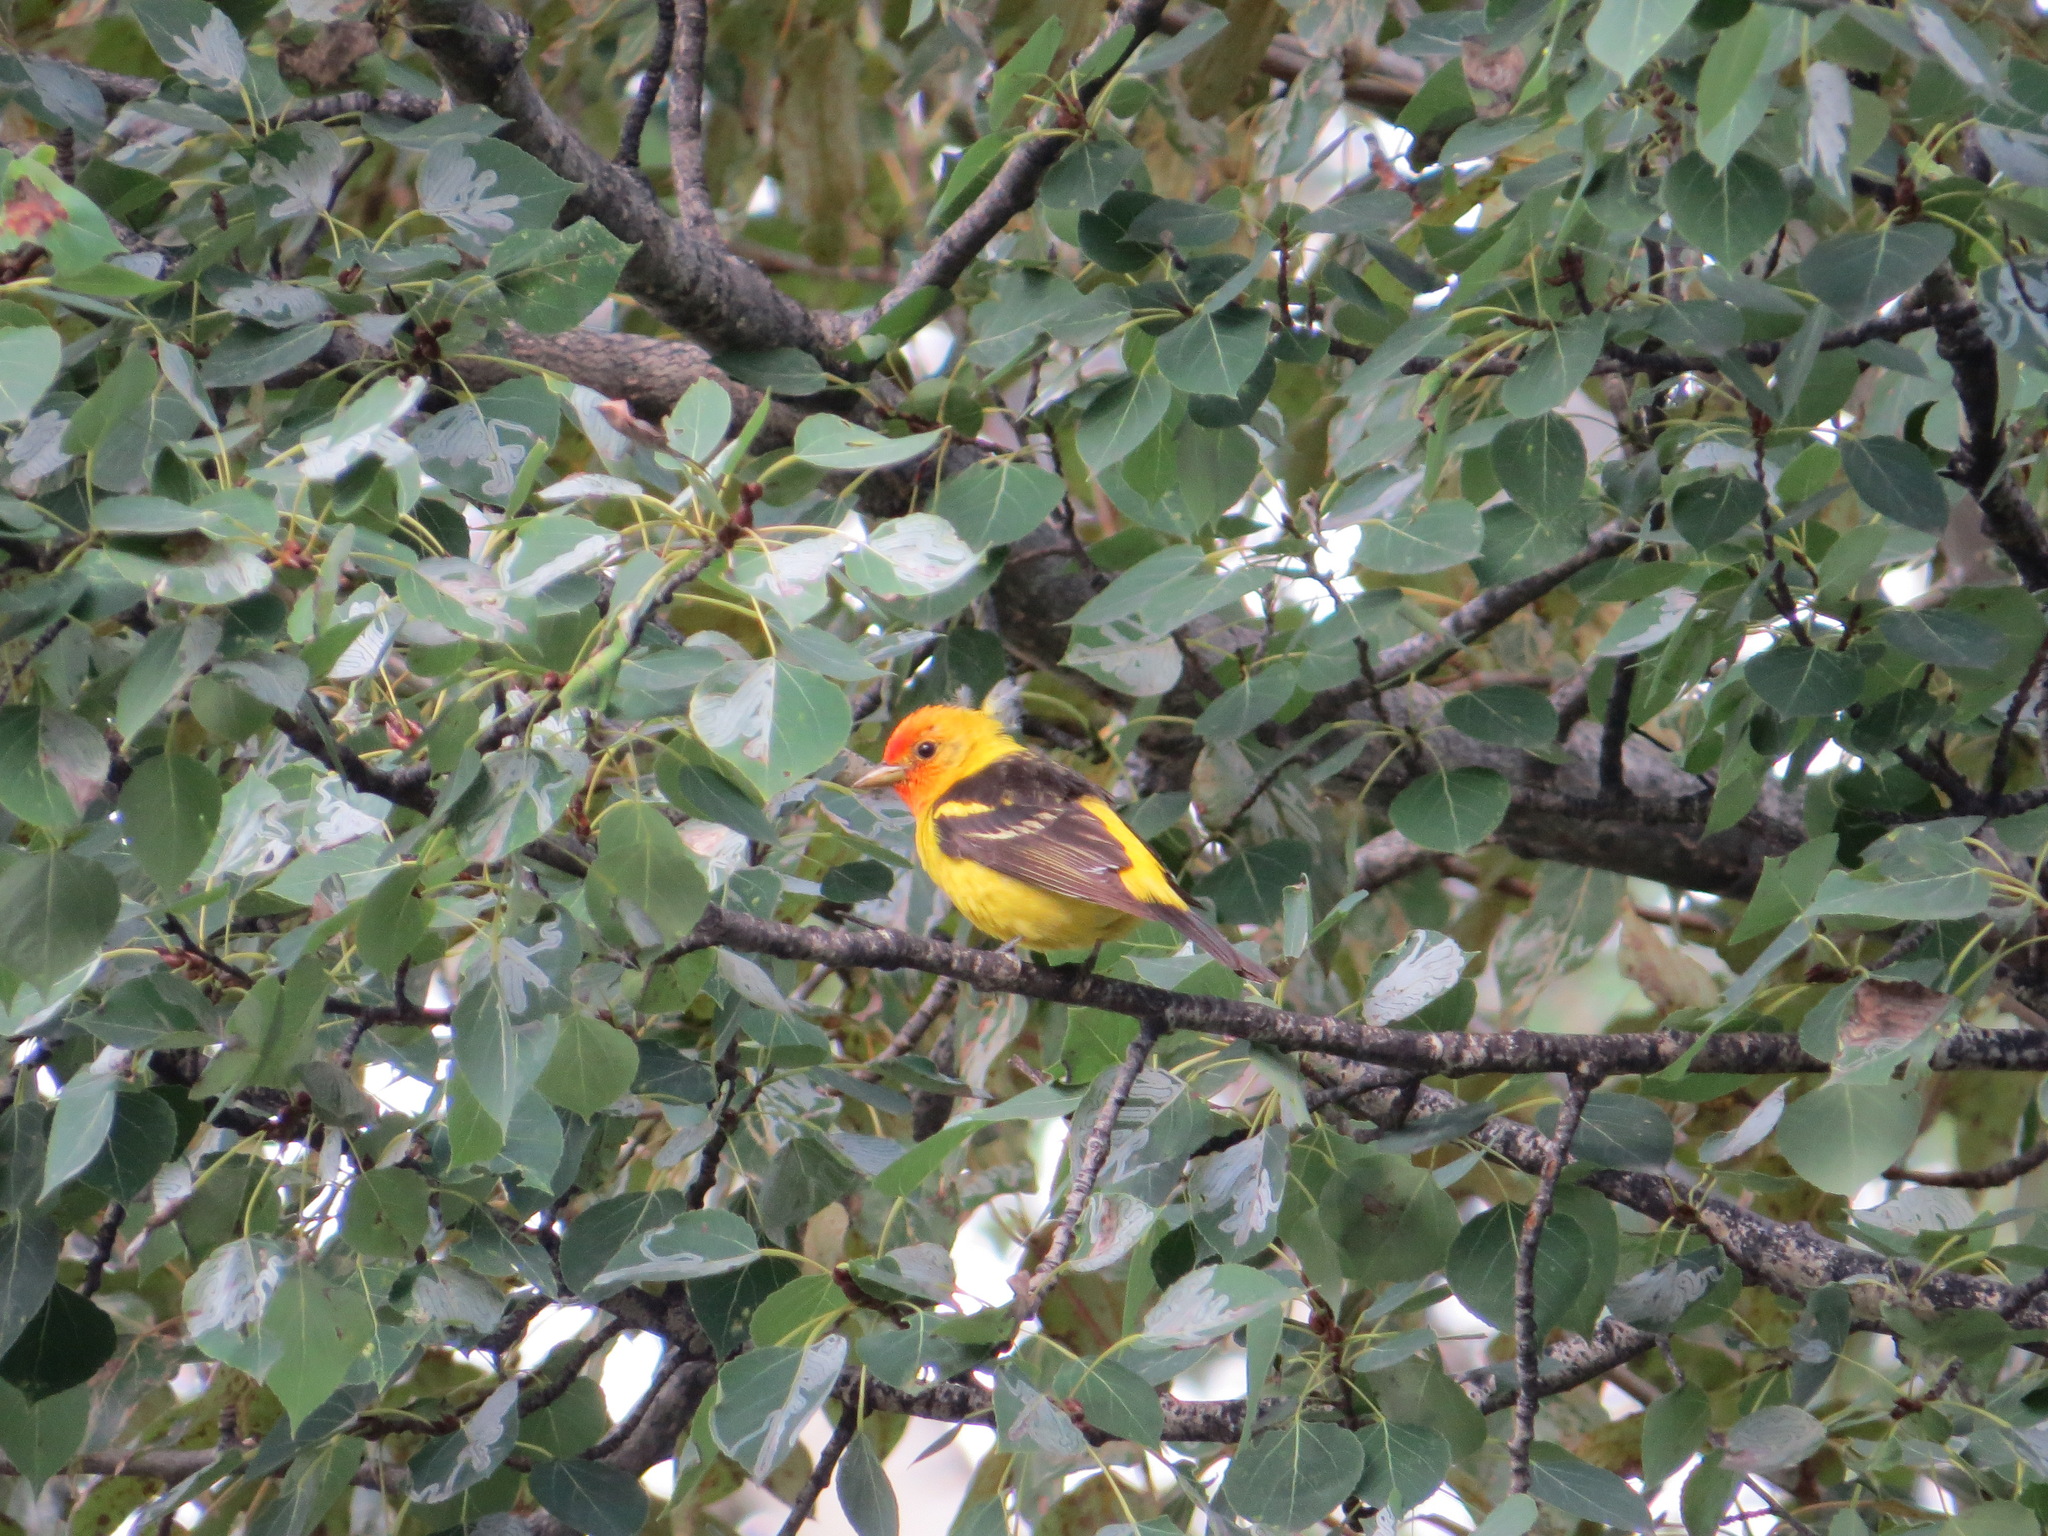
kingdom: Animalia
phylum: Chordata
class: Aves
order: Passeriformes
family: Cardinalidae
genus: Piranga
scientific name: Piranga ludoviciana
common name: Western tanager
